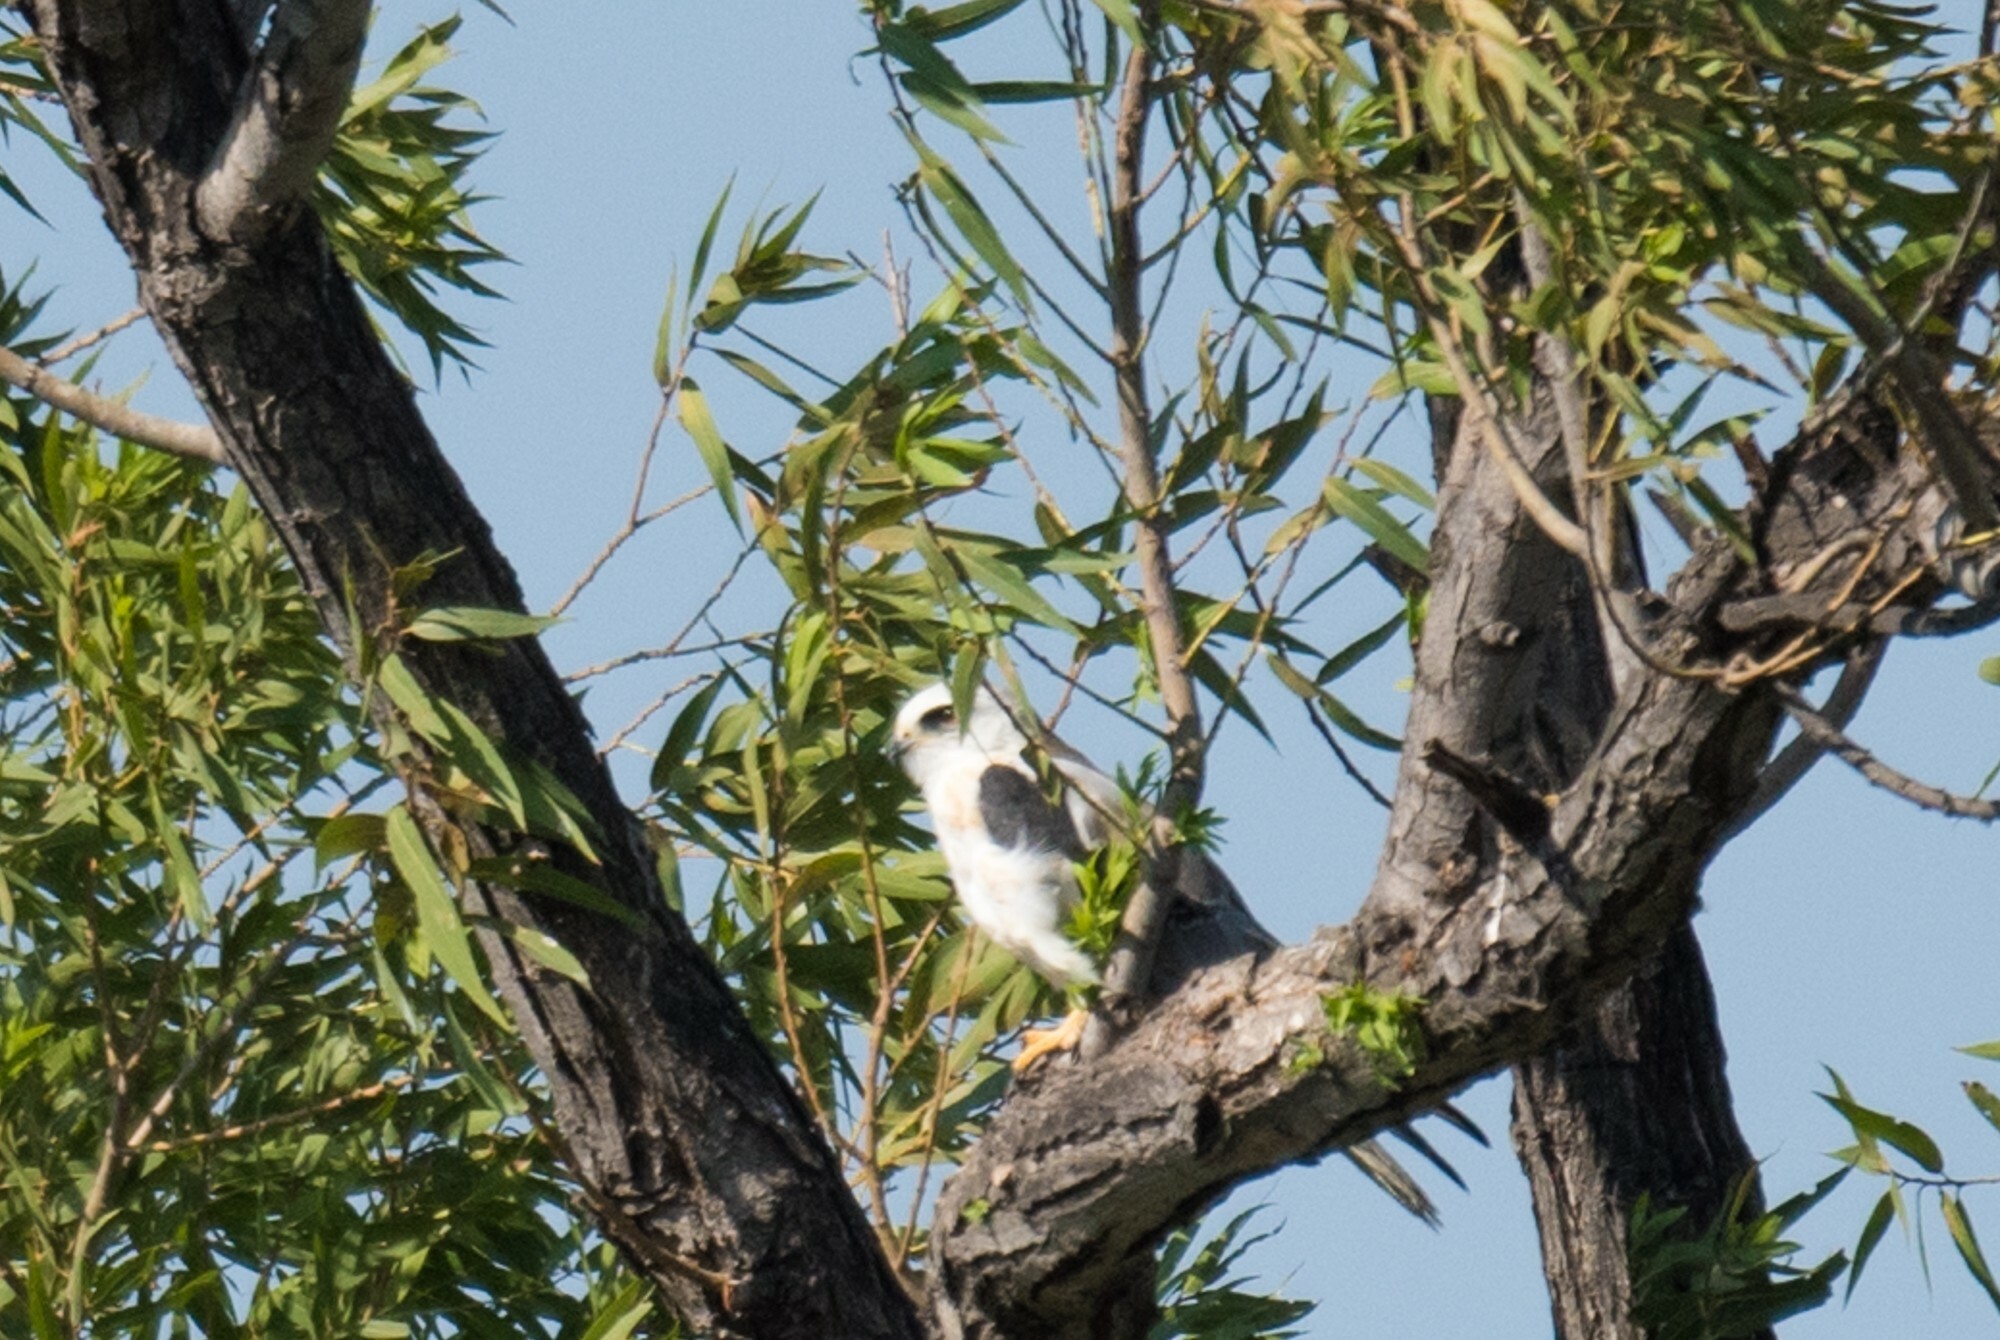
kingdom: Animalia
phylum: Chordata
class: Aves
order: Accipitriformes
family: Accipitridae
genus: Elanus
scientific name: Elanus leucurus
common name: White-tailed kite
